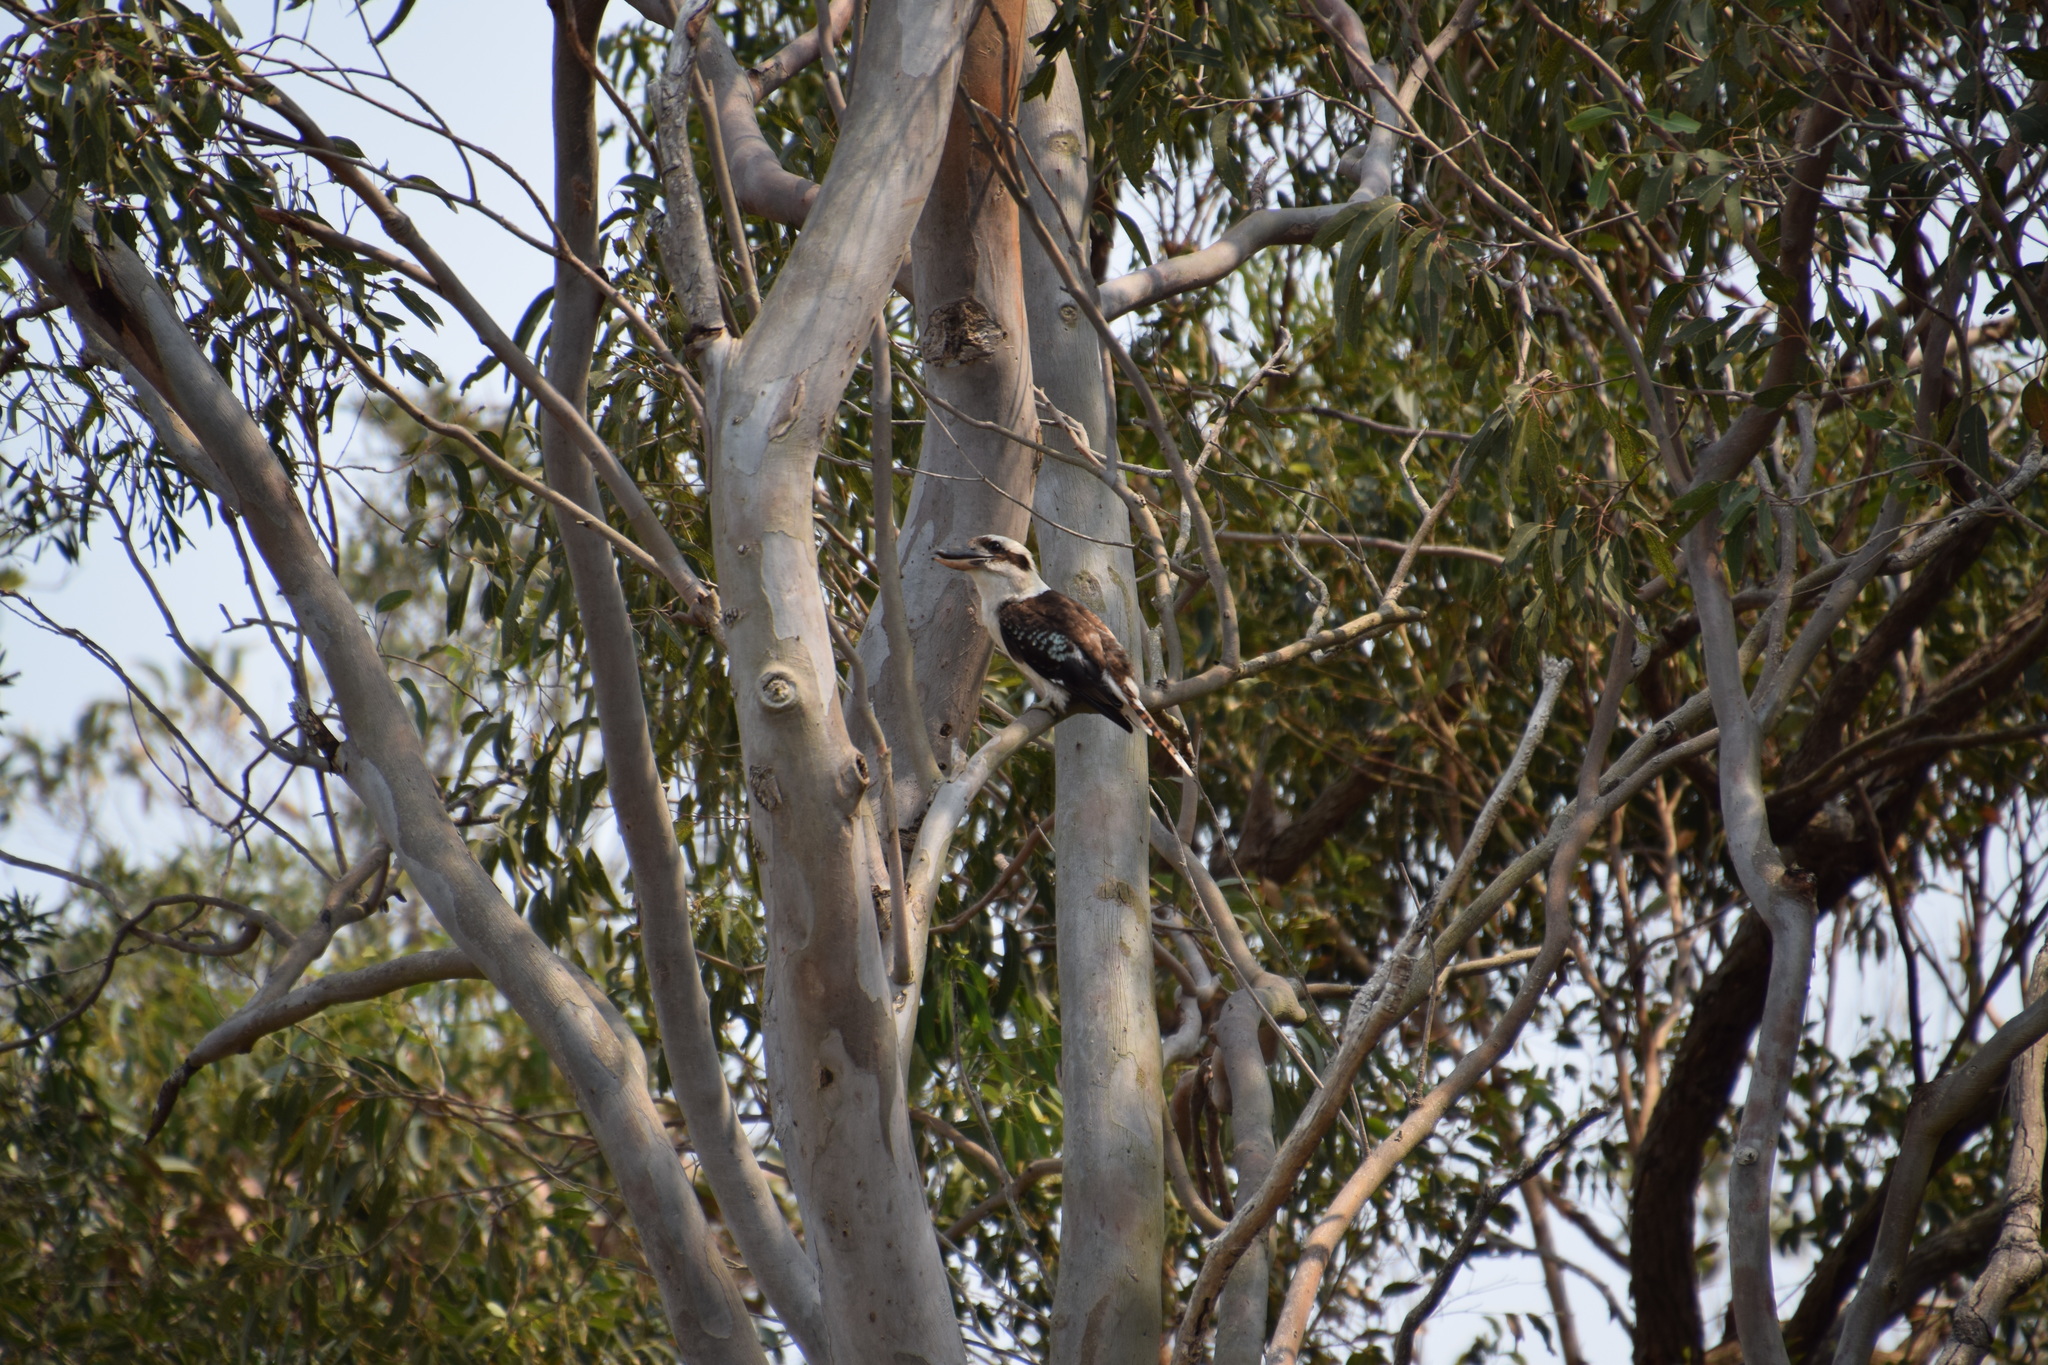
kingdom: Animalia
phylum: Chordata
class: Aves
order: Coraciiformes
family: Alcedinidae
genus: Dacelo
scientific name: Dacelo novaeguineae
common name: Laughing kookaburra
